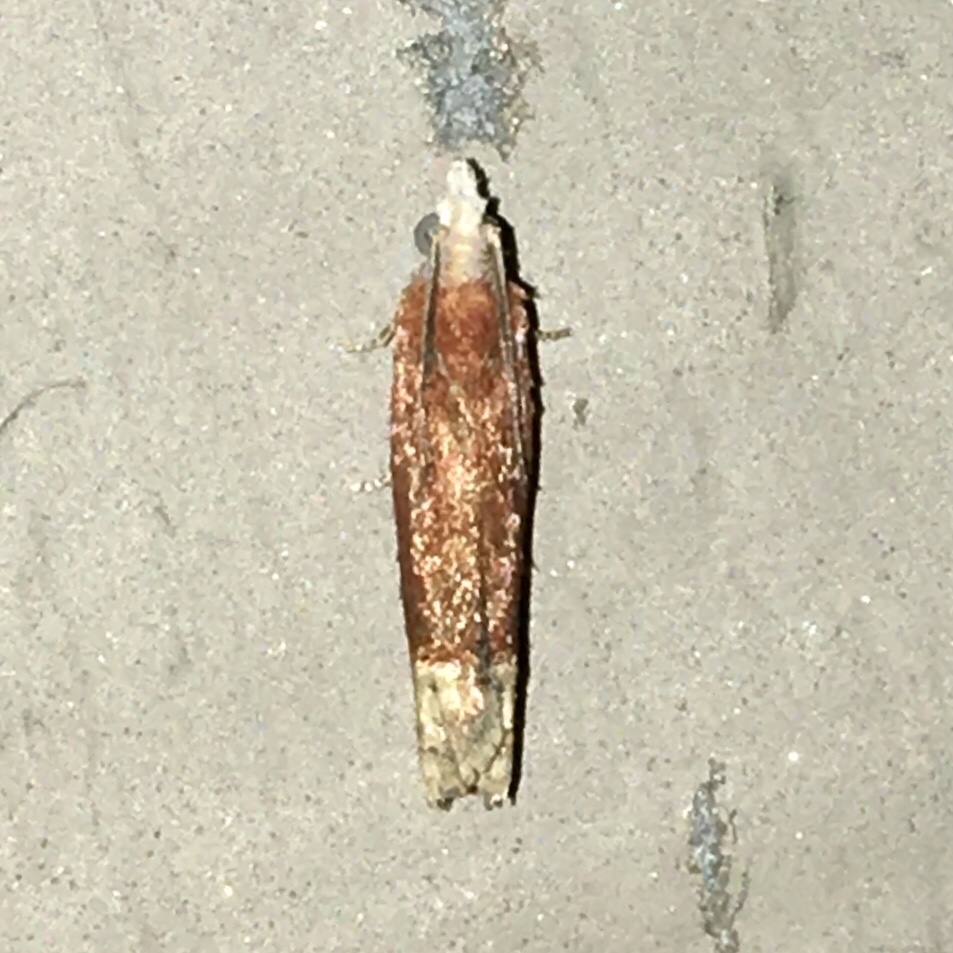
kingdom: Animalia
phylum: Arthropoda
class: Insecta
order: Lepidoptera
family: Tortricidae
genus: Eucosma
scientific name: Eucosma raracana
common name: Reddish eucosma moth
